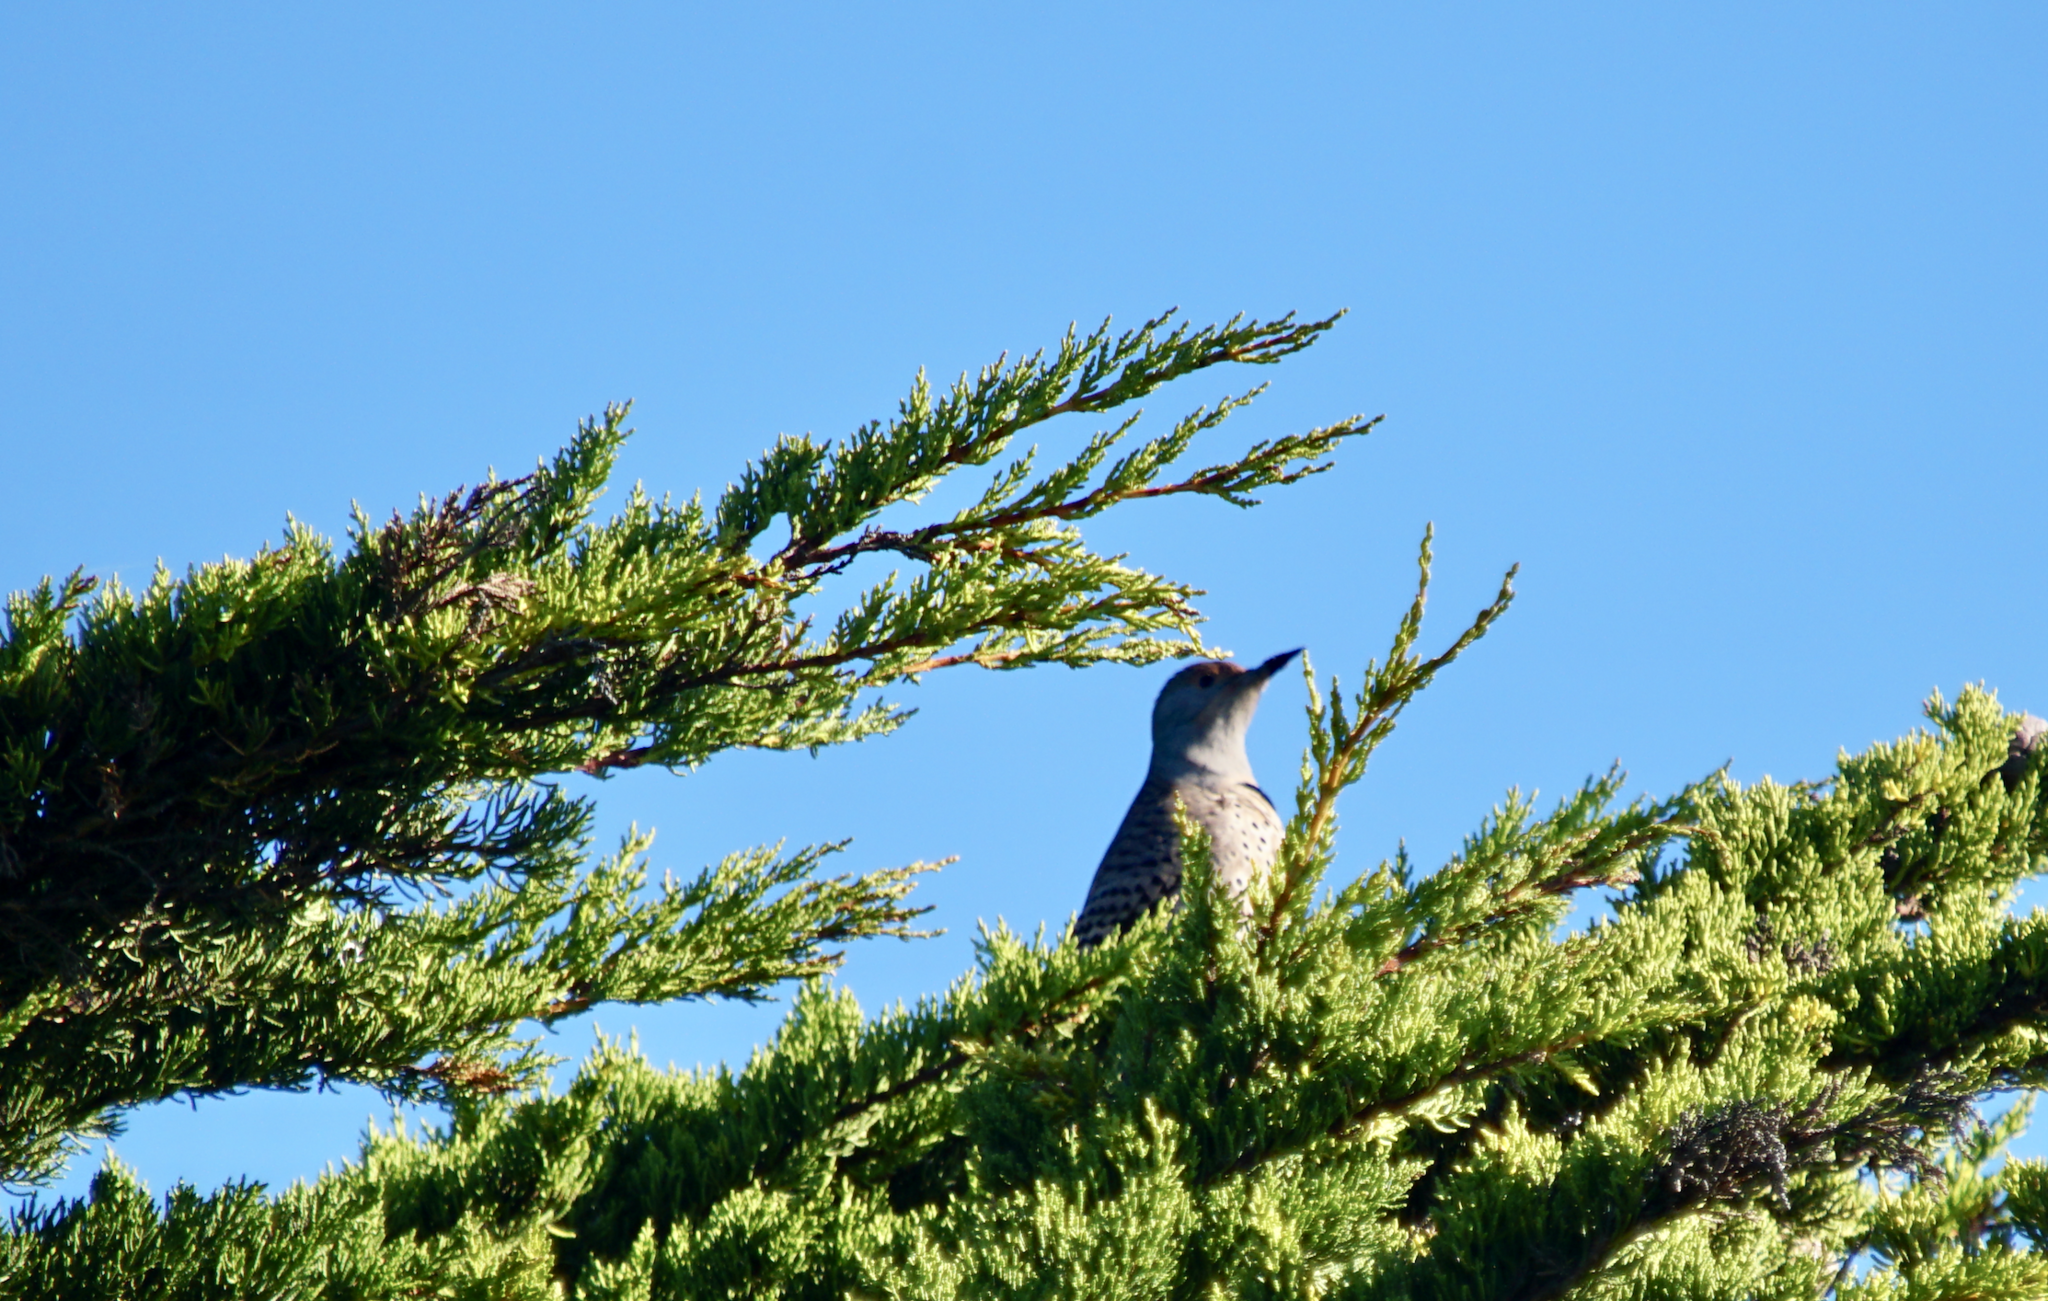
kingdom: Animalia
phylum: Chordata
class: Aves
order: Piciformes
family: Picidae
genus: Colaptes
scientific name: Colaptes auratus
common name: Northern flicker
